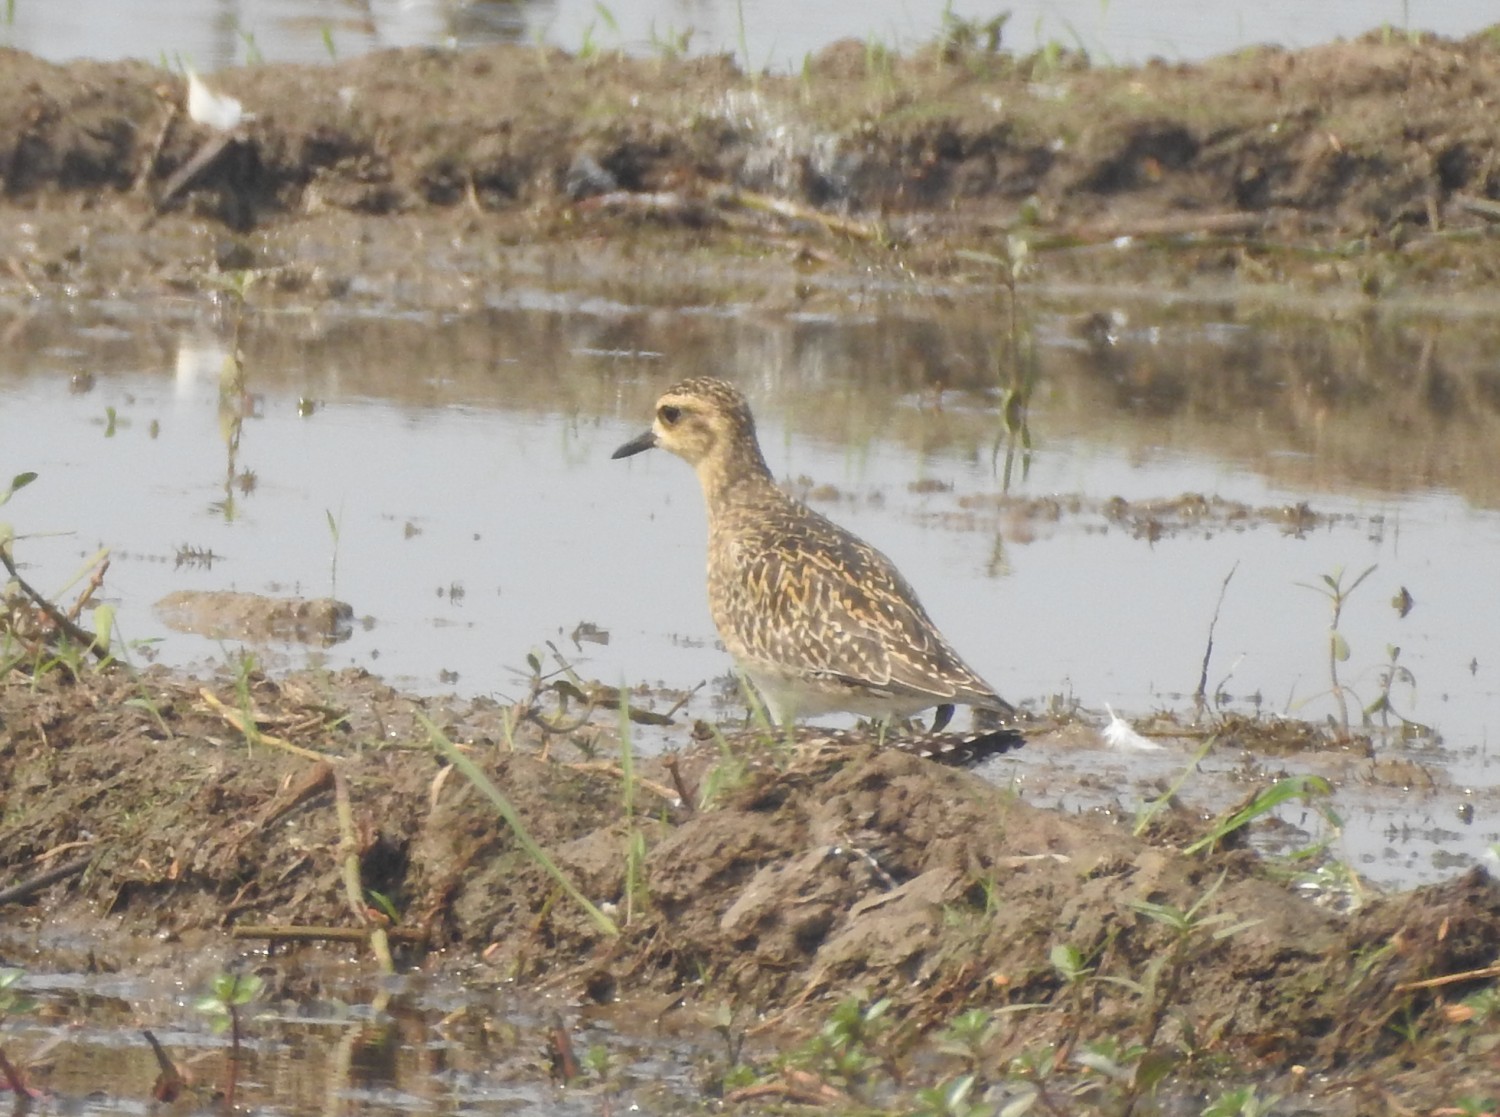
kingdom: Animalia
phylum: Chordata
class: Aves
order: Charadriiformes
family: Charadriidae
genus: Pluvialis
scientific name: Pluvialis fulva
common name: Pacific golden plover
